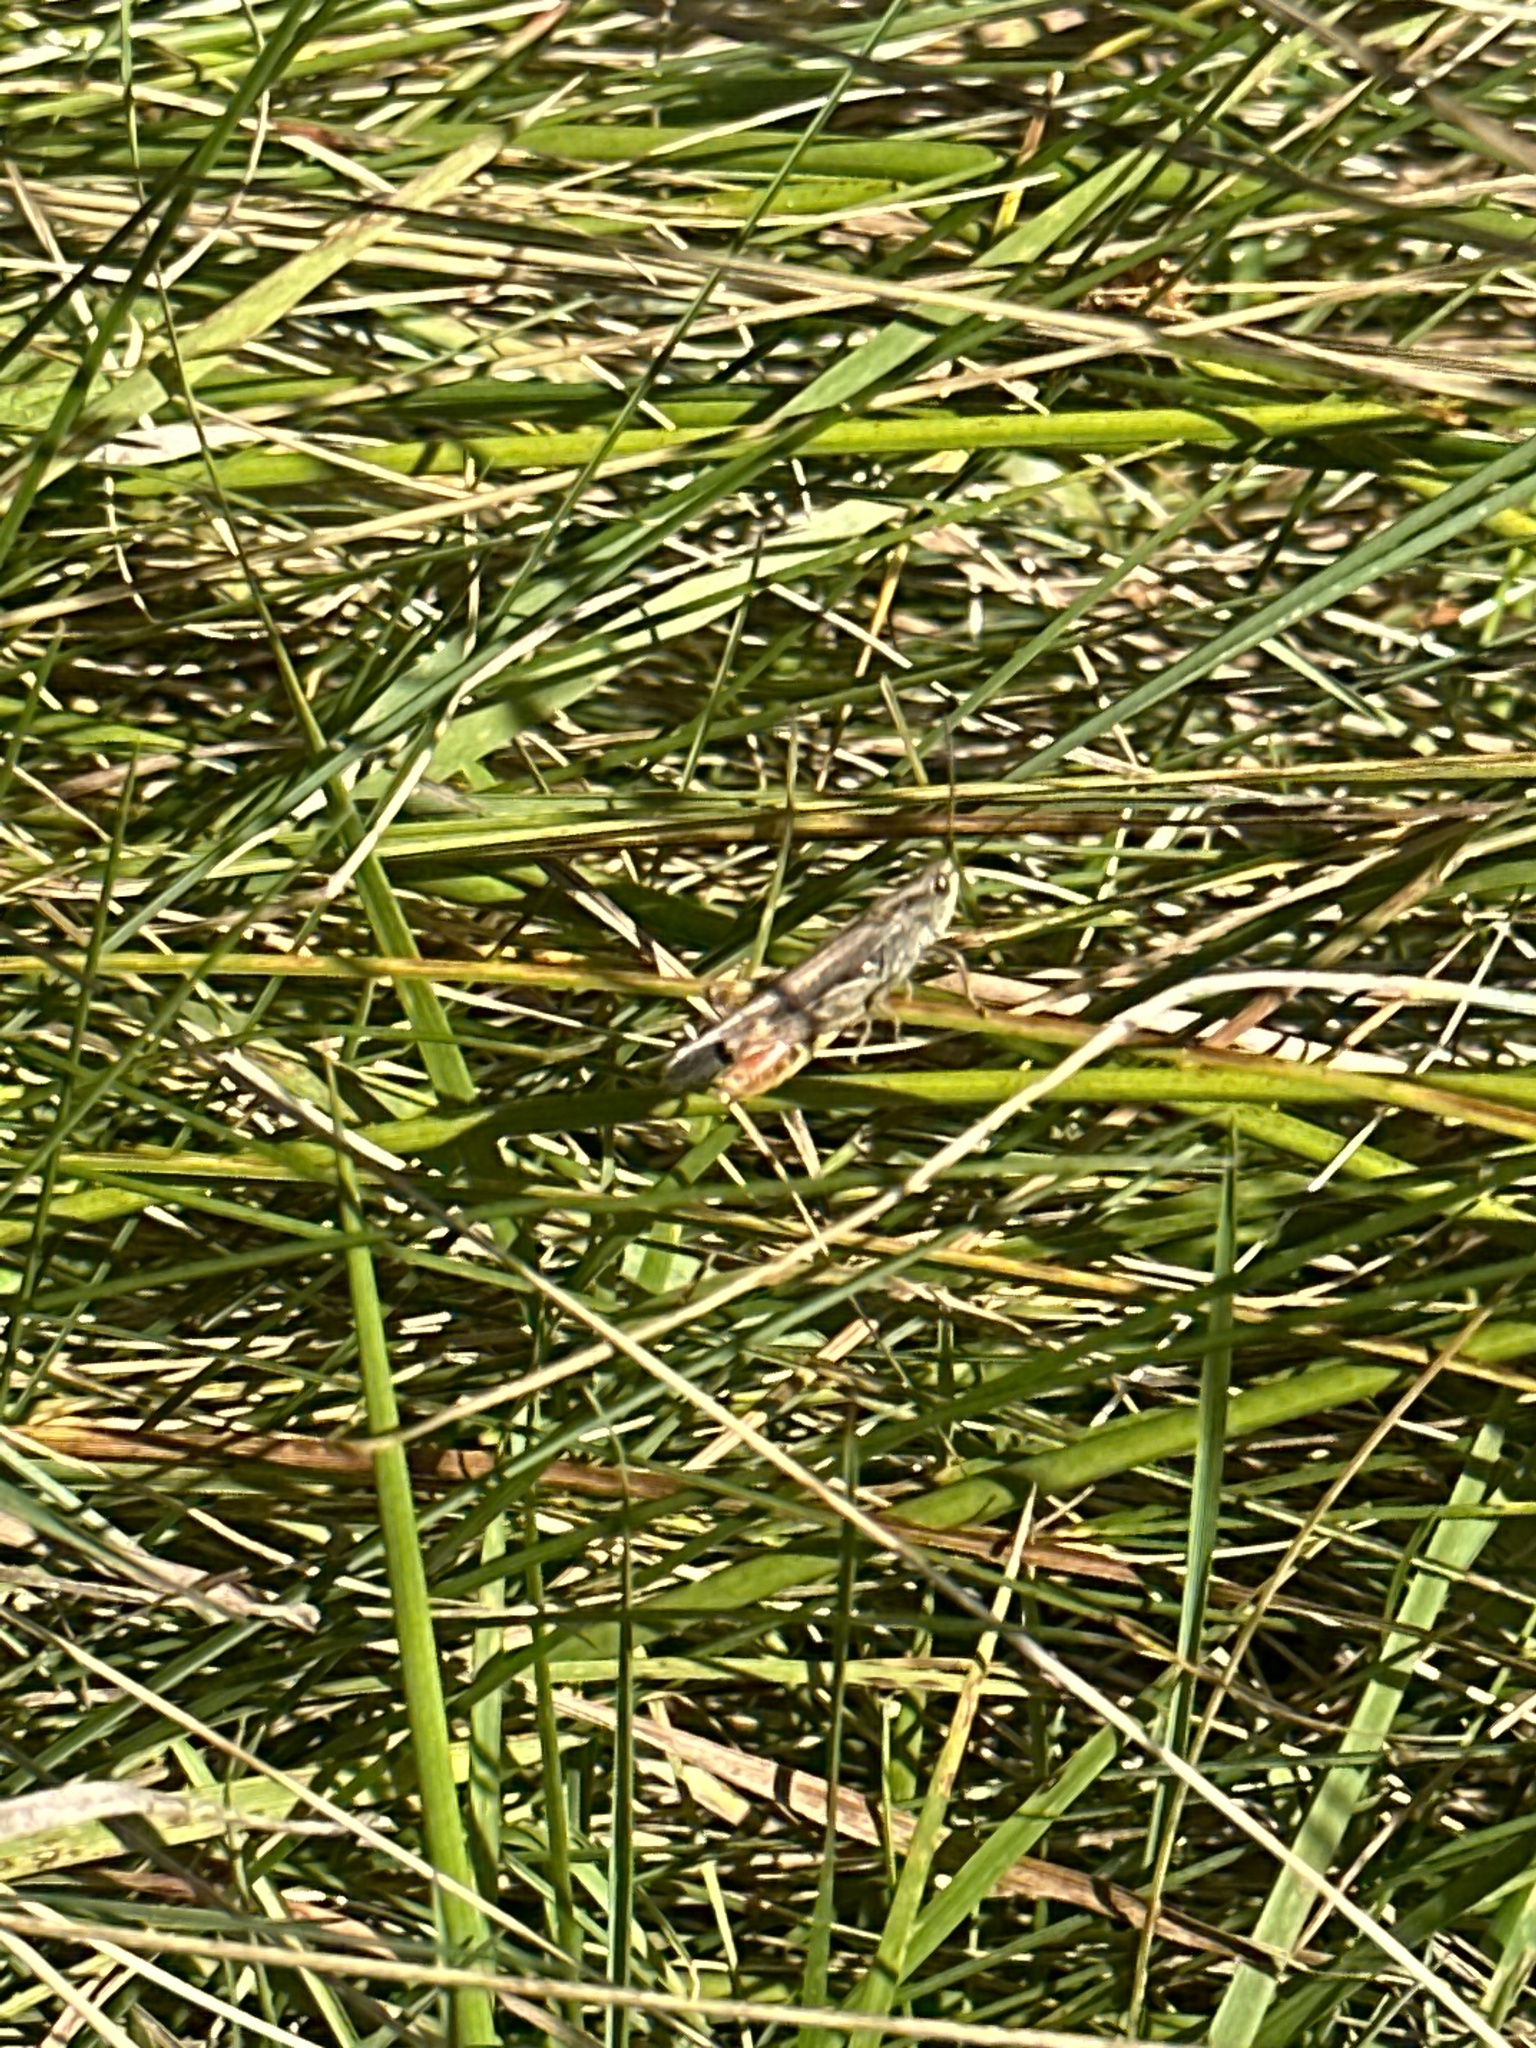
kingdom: Animalia
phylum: Arthropoda
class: Insecta
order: Orthoptera
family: Acrididae
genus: Chorthippus
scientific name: Chorthippus brunneus
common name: Field grasshopper
